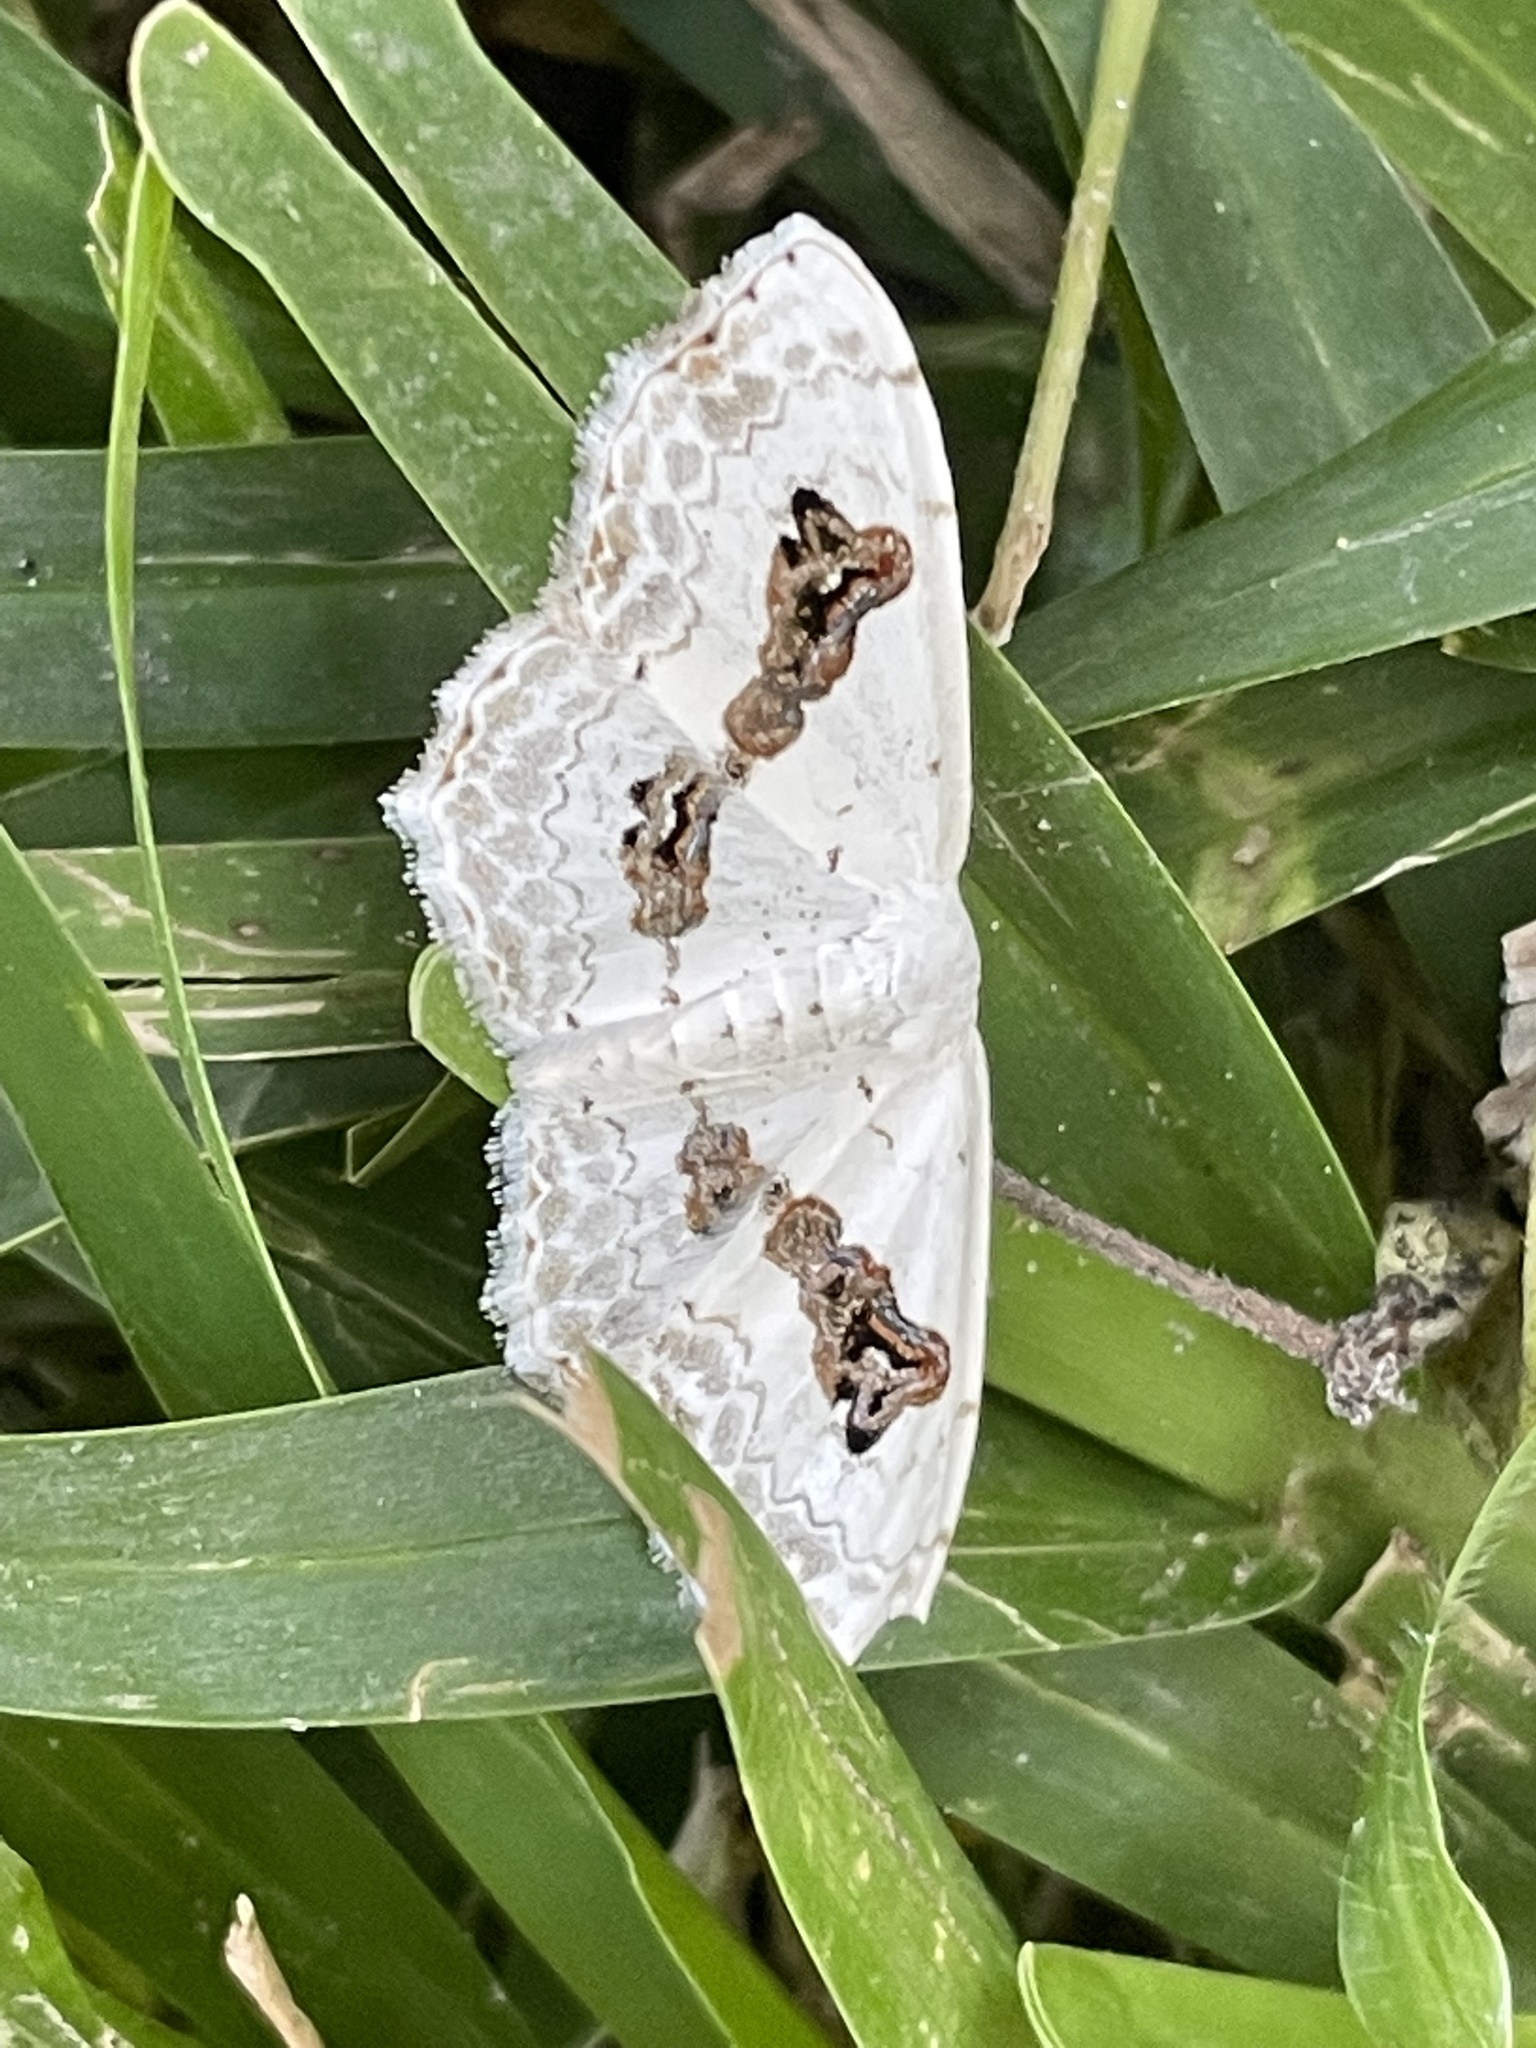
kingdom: Animalia
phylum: Arthropoda
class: Insecta
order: Lepidoptera
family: Geometridae
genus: Problepsis
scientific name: Problepsis
